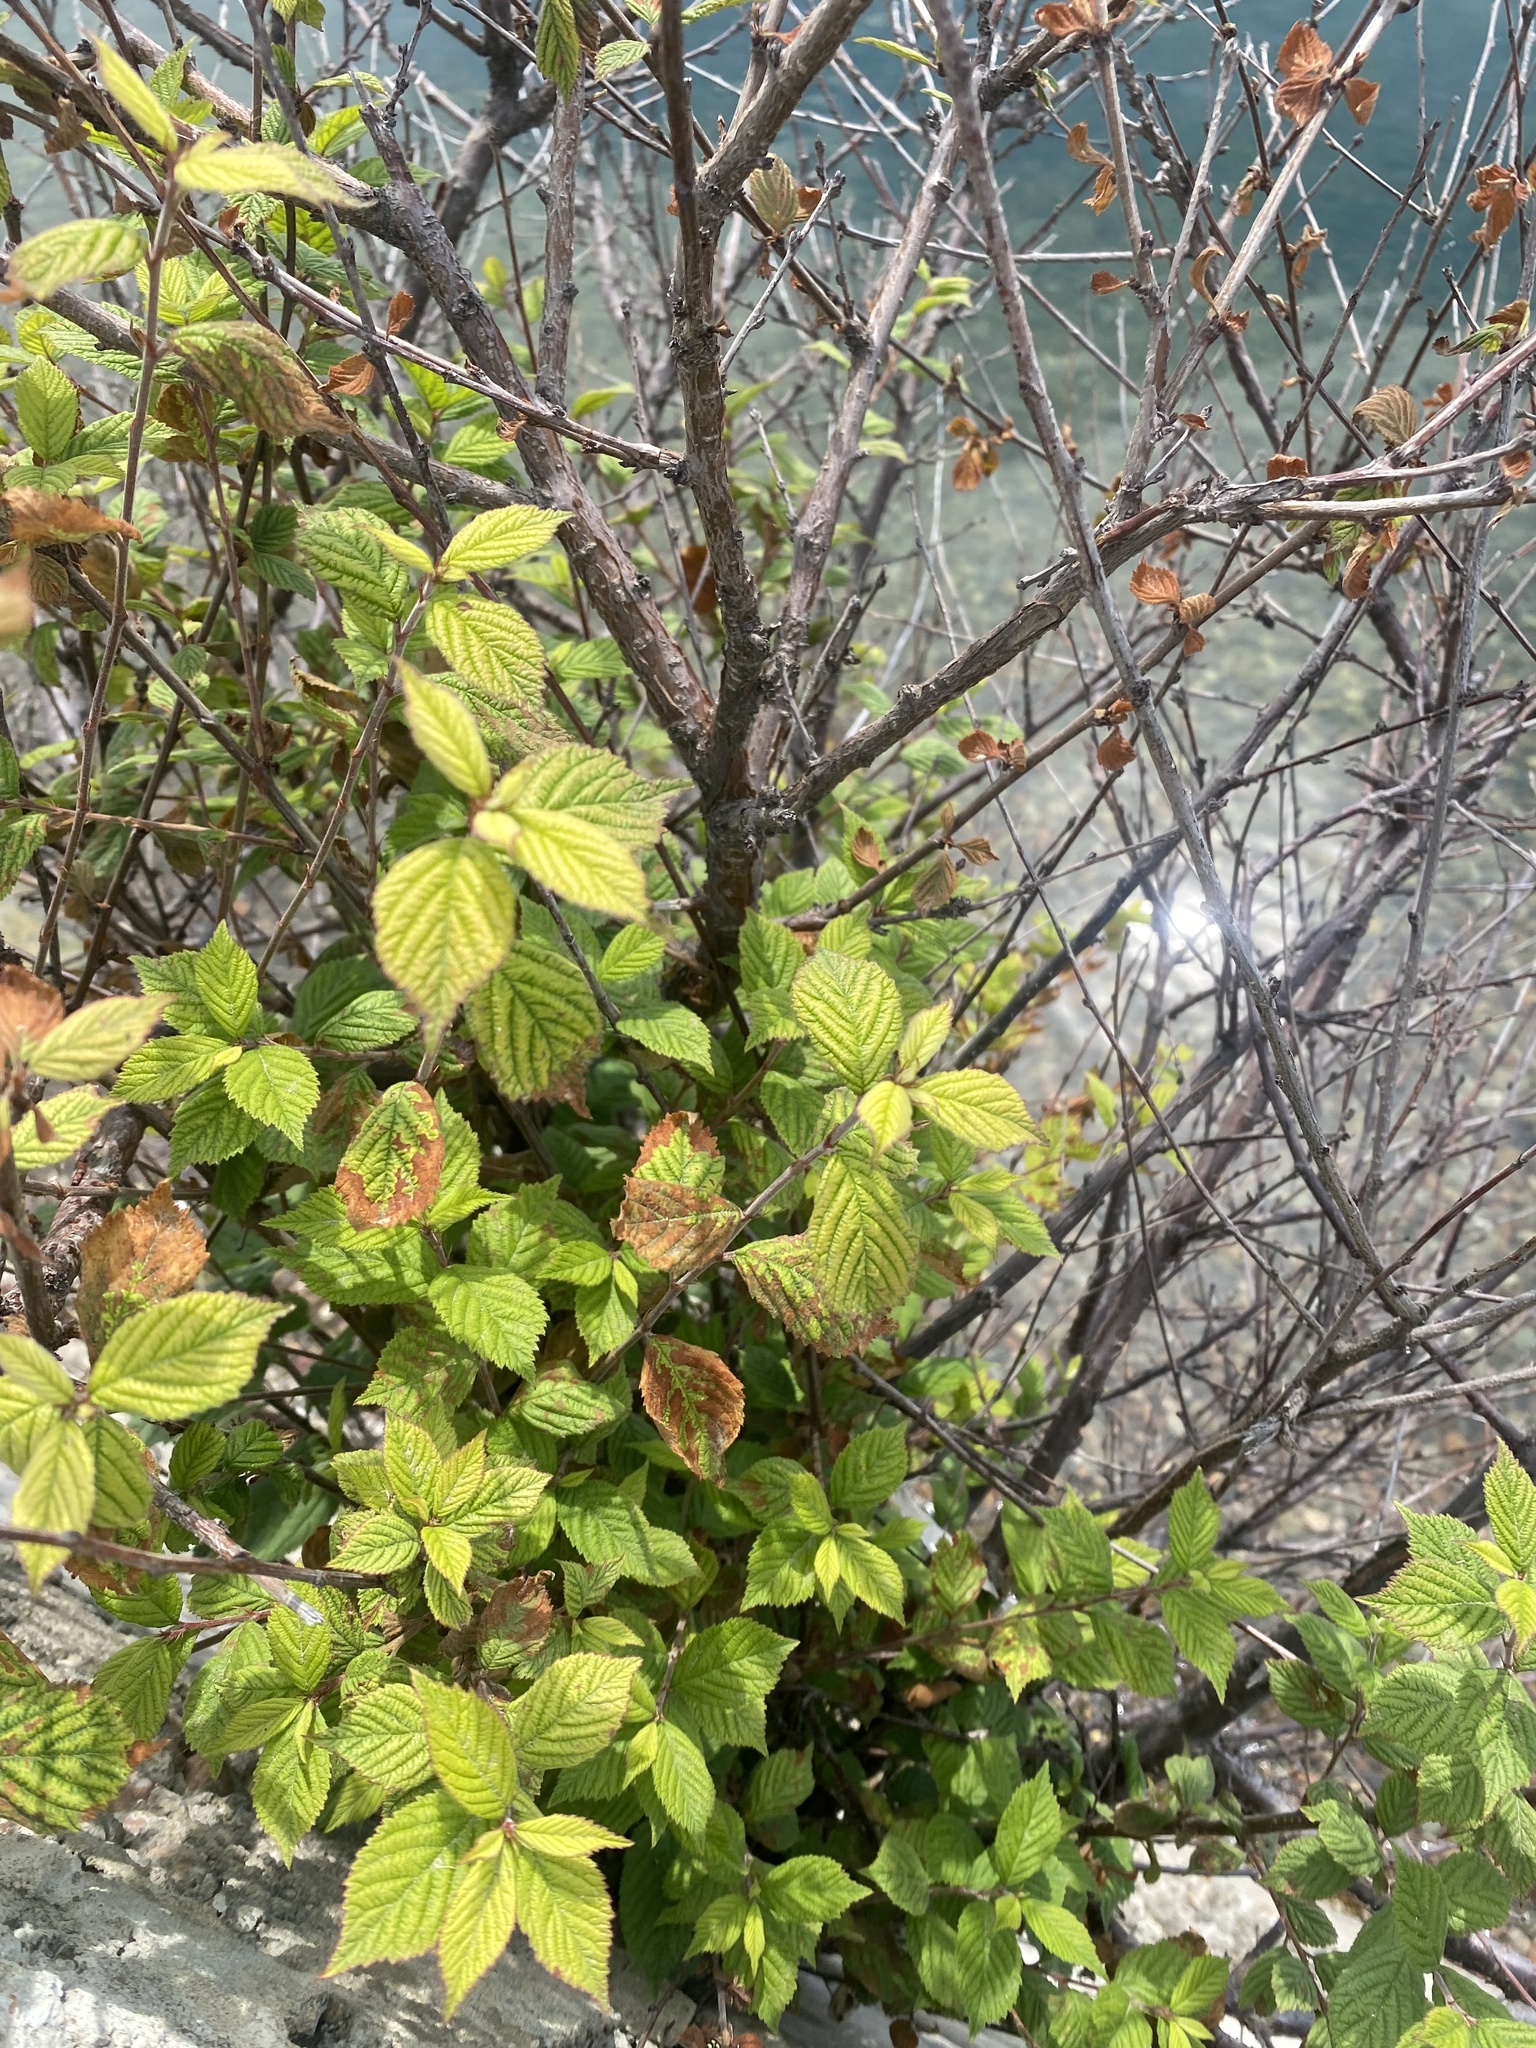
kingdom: Plantae
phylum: Tracheophyta
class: Magnoliopsida
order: Rosales
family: Rosaceae
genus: Prunus
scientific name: Prunus tomentosa
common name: Nanking cherry
